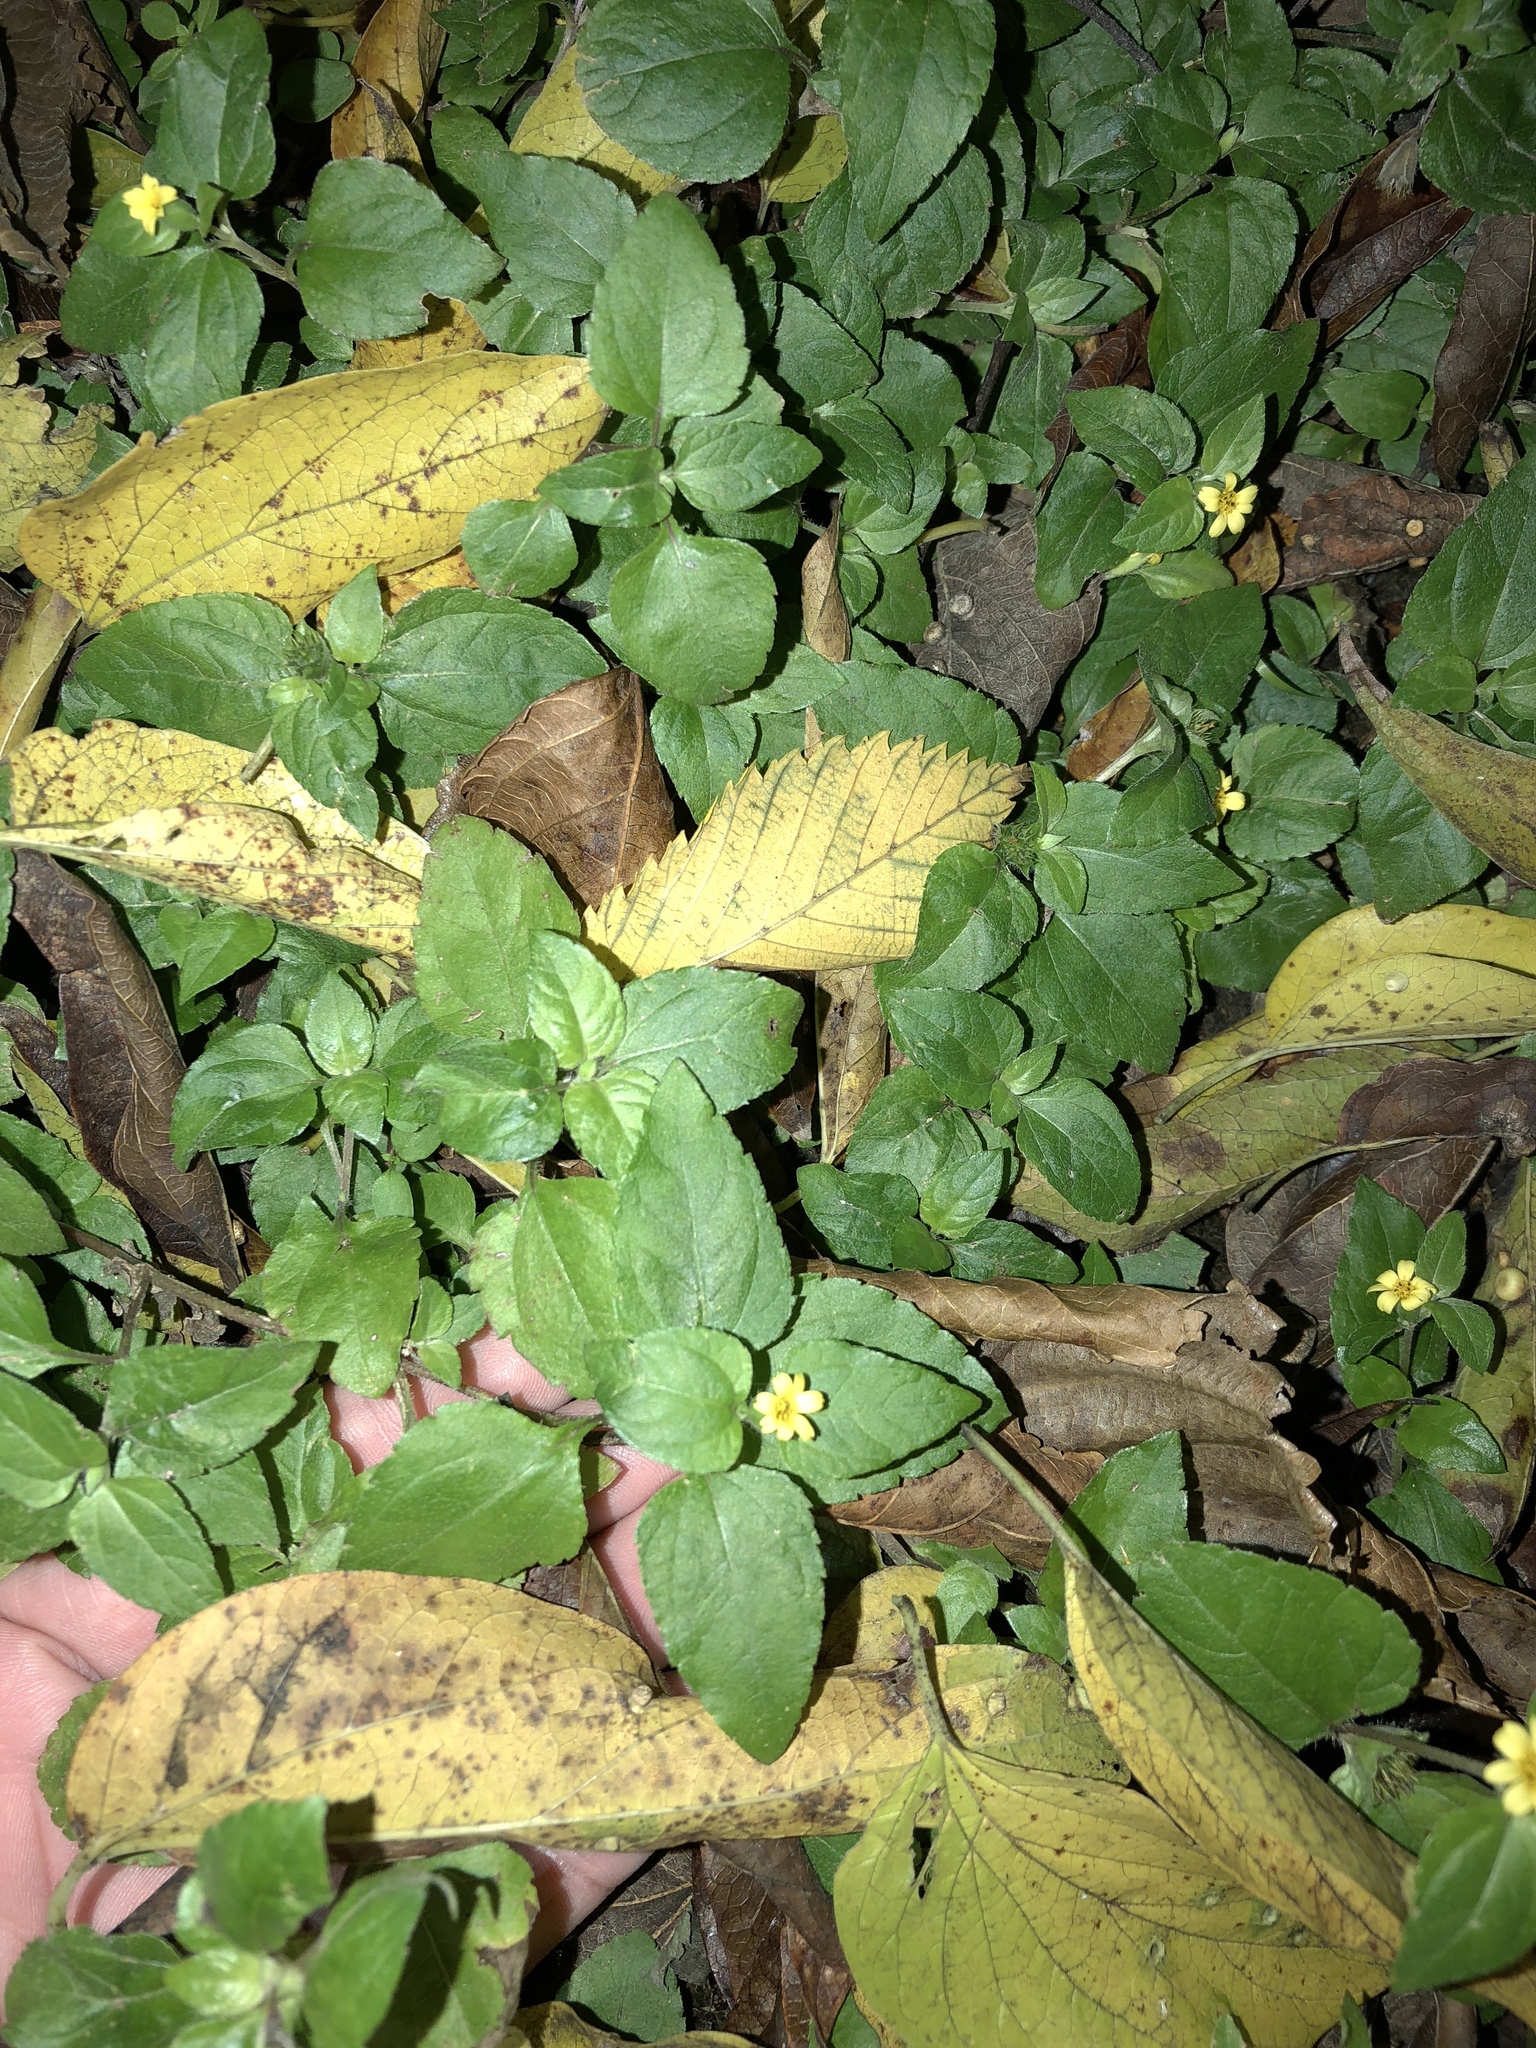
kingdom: Plantae
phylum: Tracheophyta
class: Magnoliopsida
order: Asterales
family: Asteraceae
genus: Calyptocarpus
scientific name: Calyptocarpus vialis
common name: Straggler daisy
